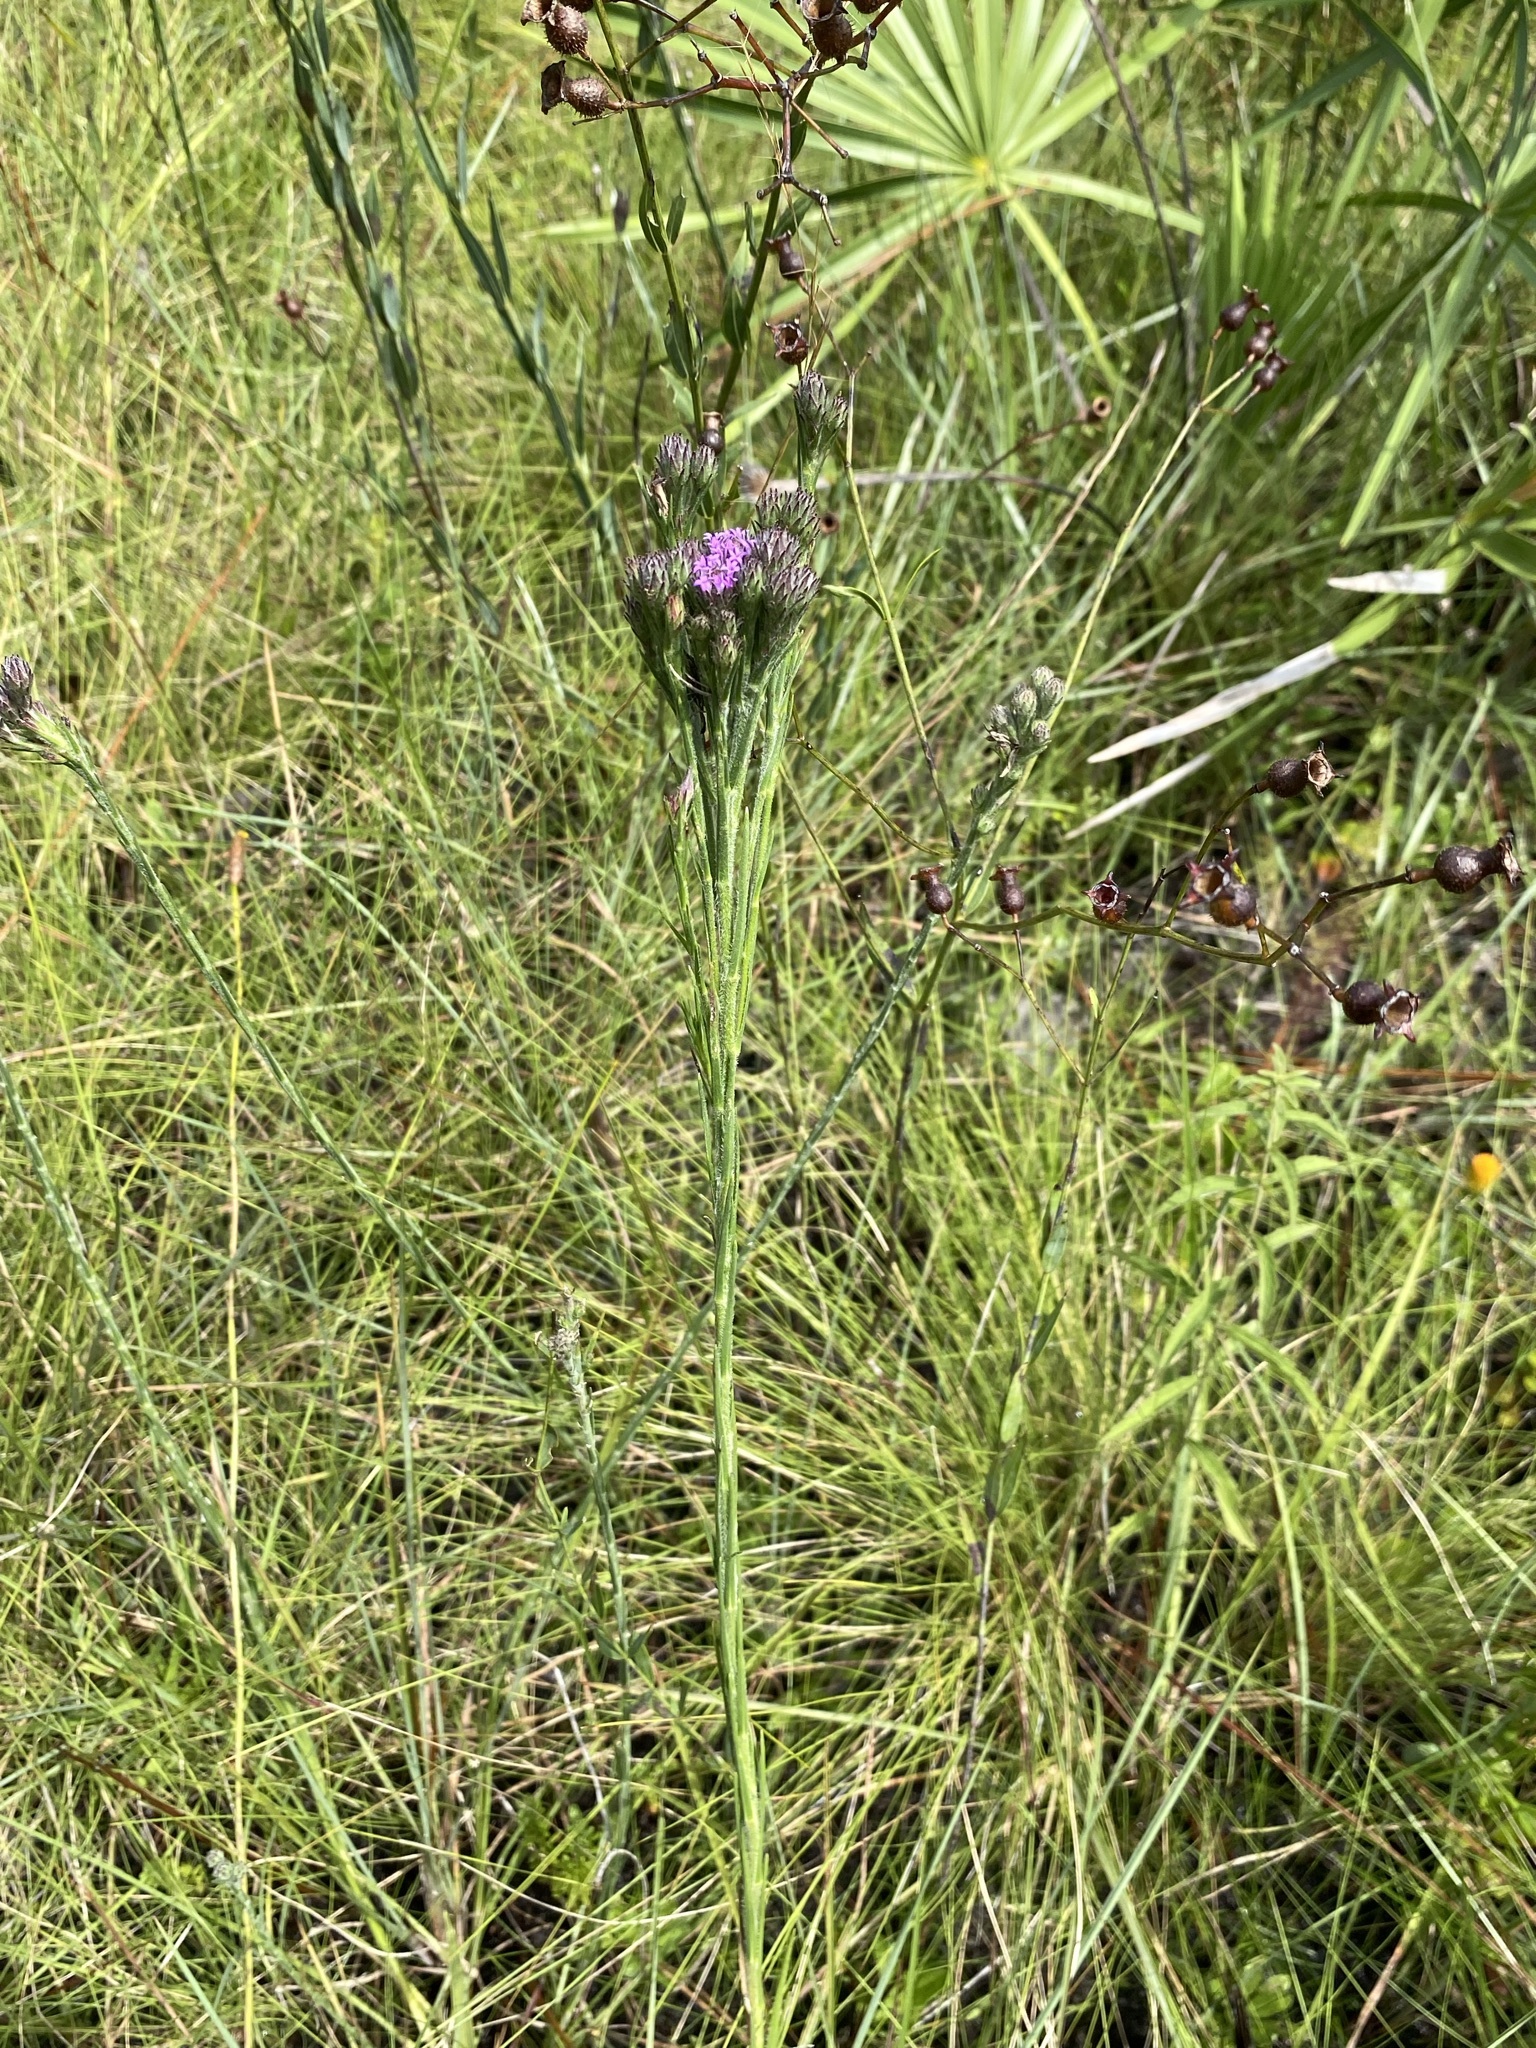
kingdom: Plantae
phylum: Tracheophyta
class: Magnoliopsida
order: Asterales
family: Asteraceae
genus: Carphephorus
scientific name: Carphephorus pseudoliatris
